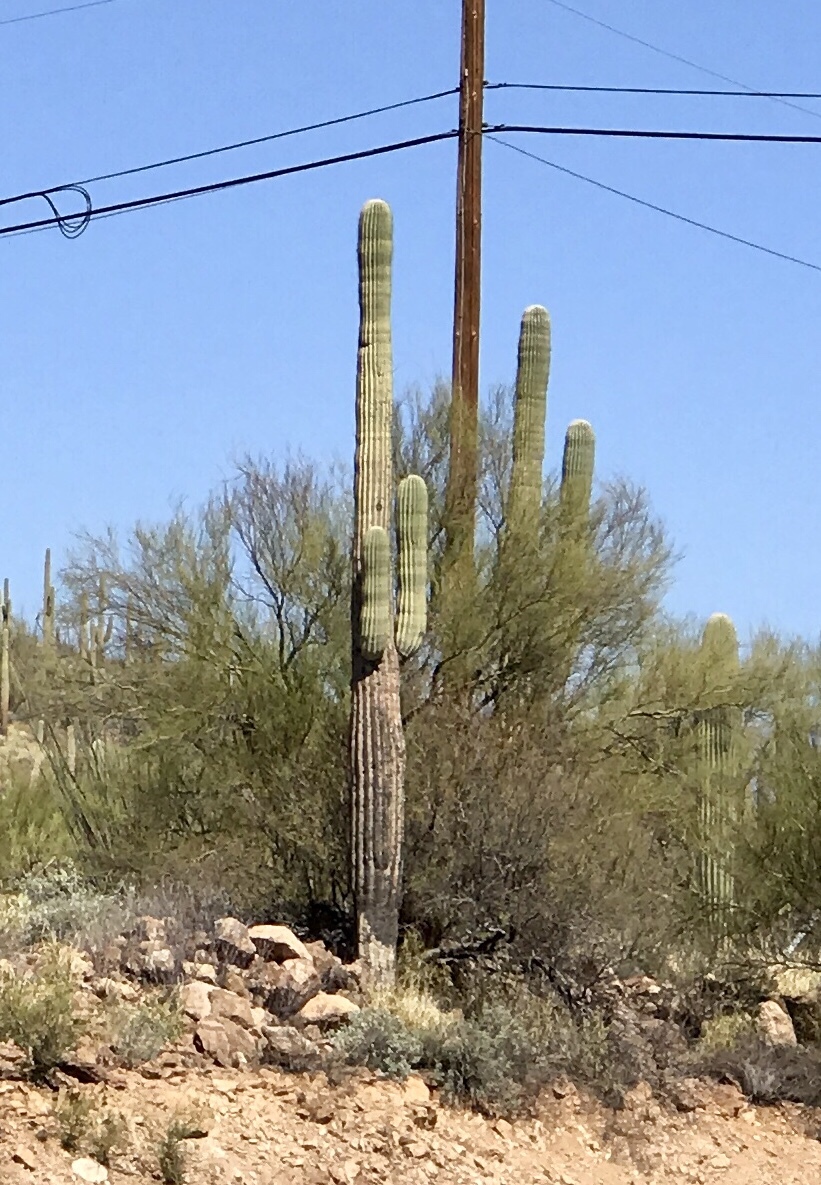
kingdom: Plantae
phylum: Tracheophyta
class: Magnoliopsida
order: Caryophyllales
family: Cactaceae
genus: Carnegiea
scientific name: Carnegiea gigantea
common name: Saguaro
